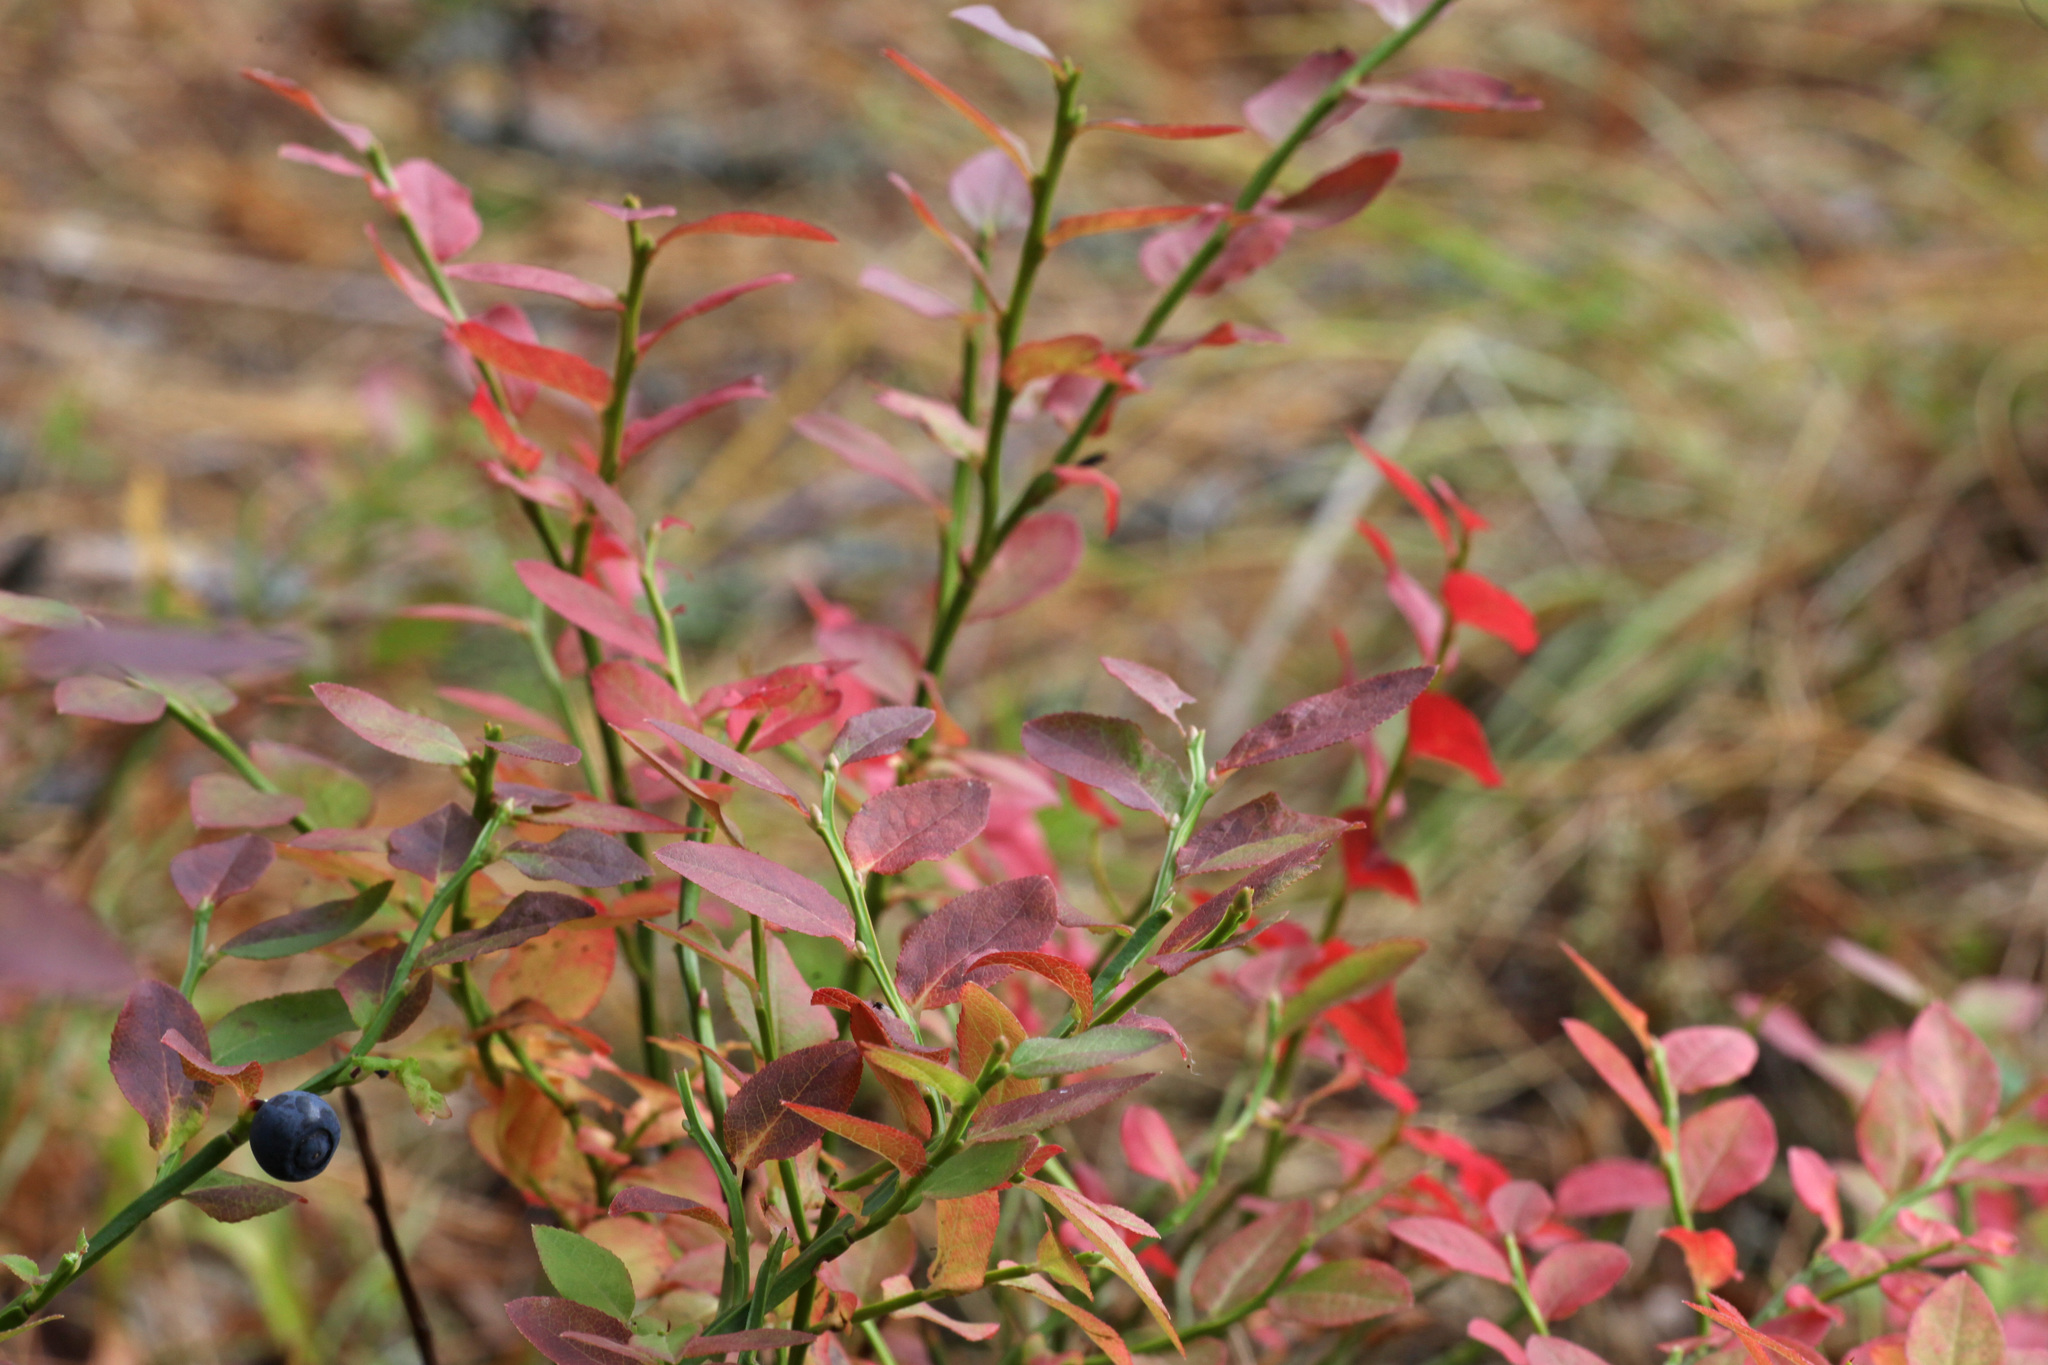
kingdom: Plantae
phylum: Tracheophyta
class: Magnoliopsida
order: Ericales
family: Ericaceae
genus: Vaccinium
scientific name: Vaccinium myrtillus
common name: Bilberry
